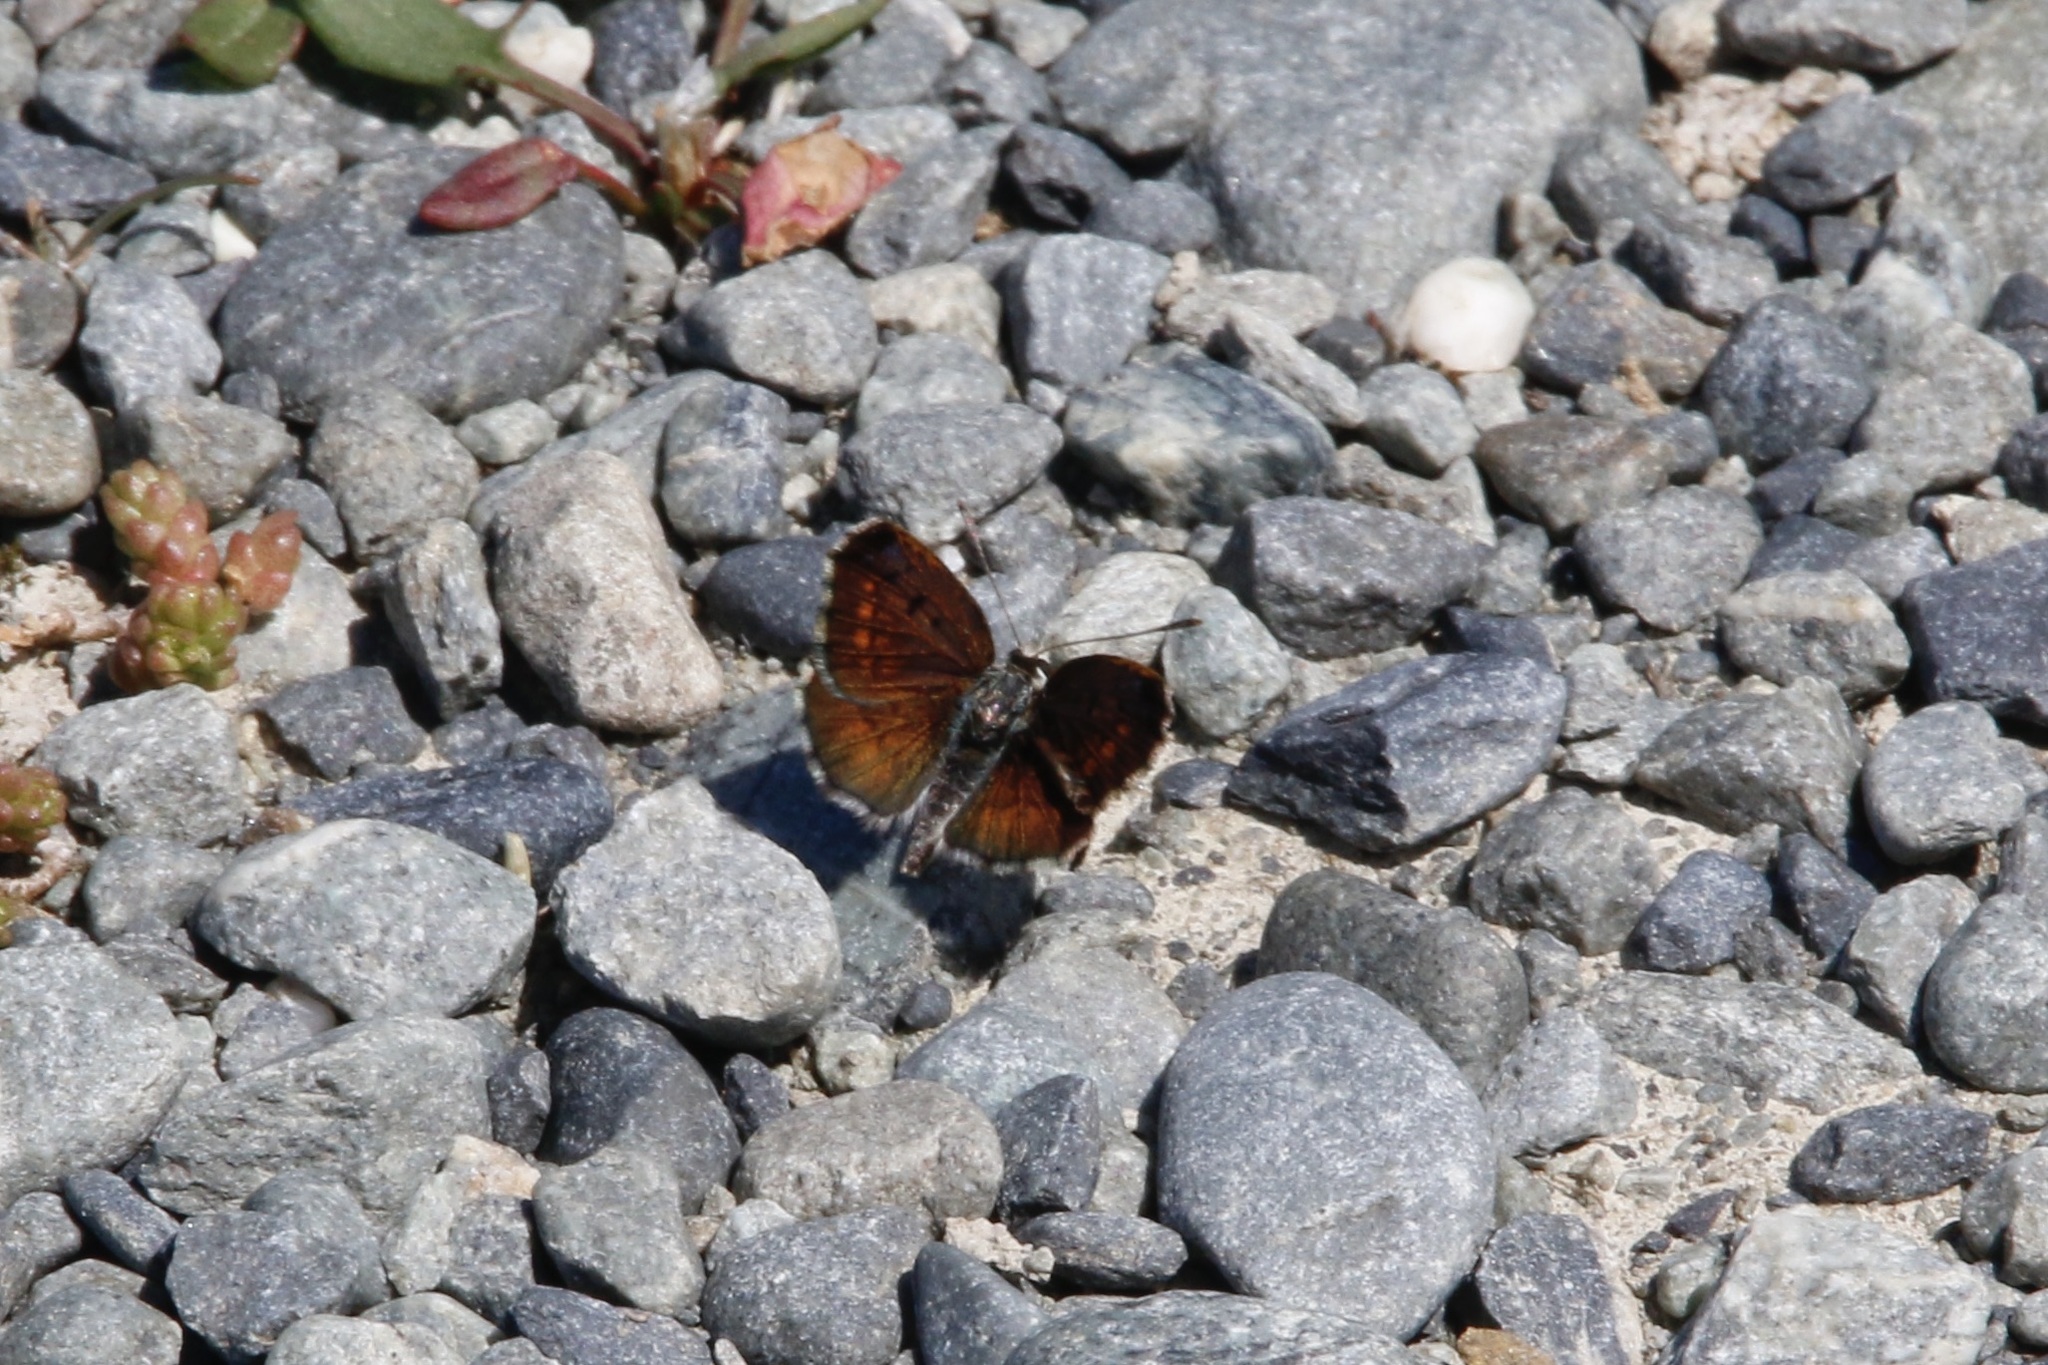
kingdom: Animalia
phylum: Arthropoda
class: Insecta
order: Lepidoptera
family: Lycaenidae
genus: Lycaena
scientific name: Lycaena boldenarum
